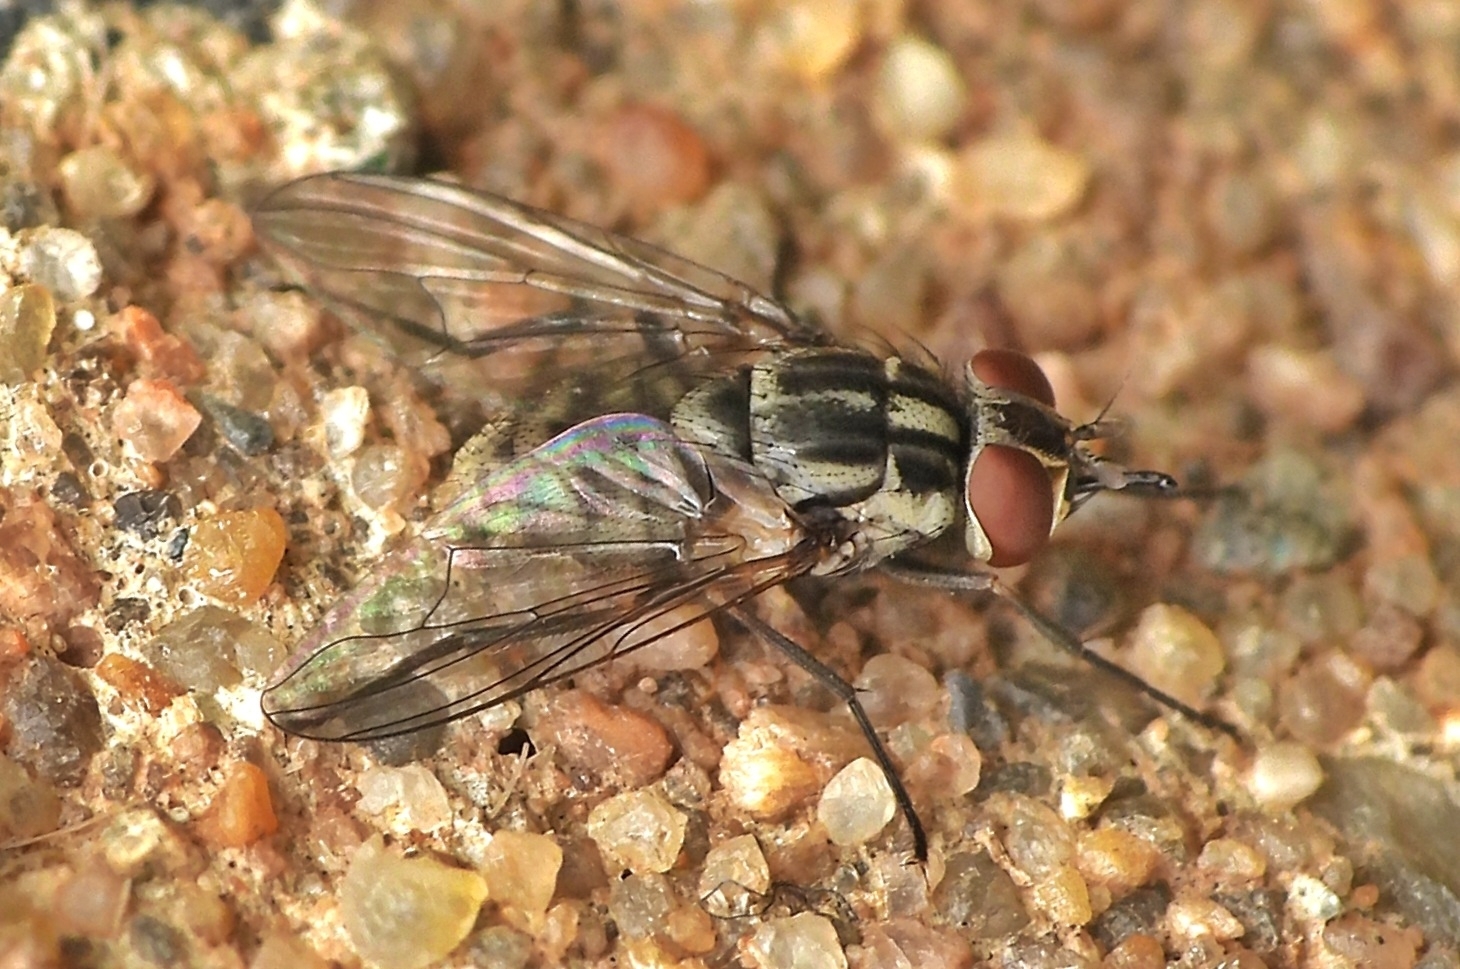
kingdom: Animalia
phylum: Arthropoda
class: Insecta
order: Diptera
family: Muscidae
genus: Stomoxys
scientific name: Stomoxys calcitrans
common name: Stable fly
